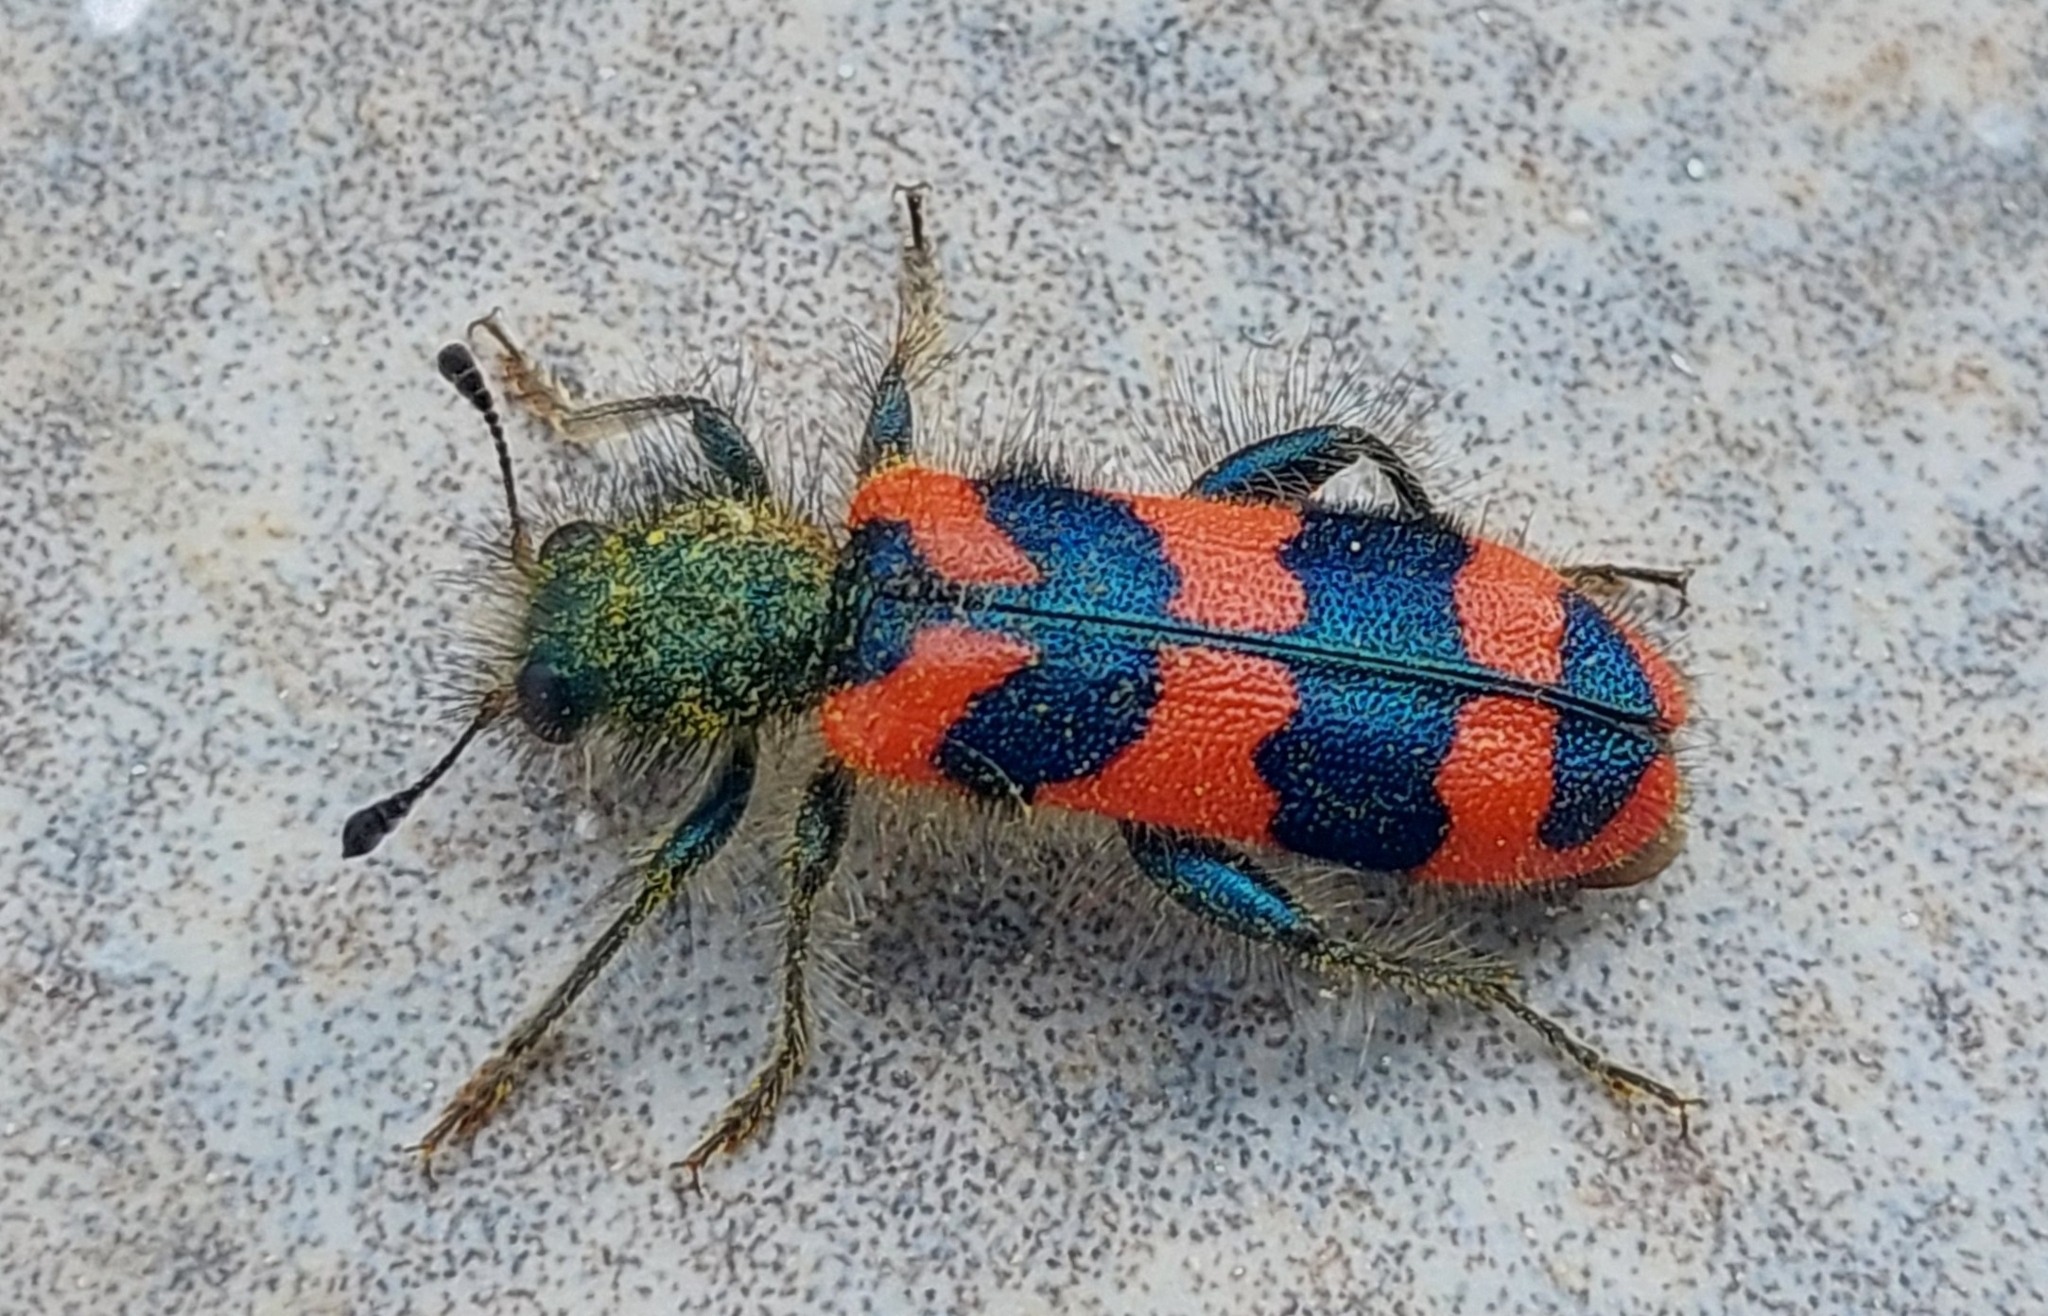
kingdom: Animalia
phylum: Arthropoda
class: Insecta
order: Coleoptera
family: Cleridae
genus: Trichodes
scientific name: Trichodes alvearius
